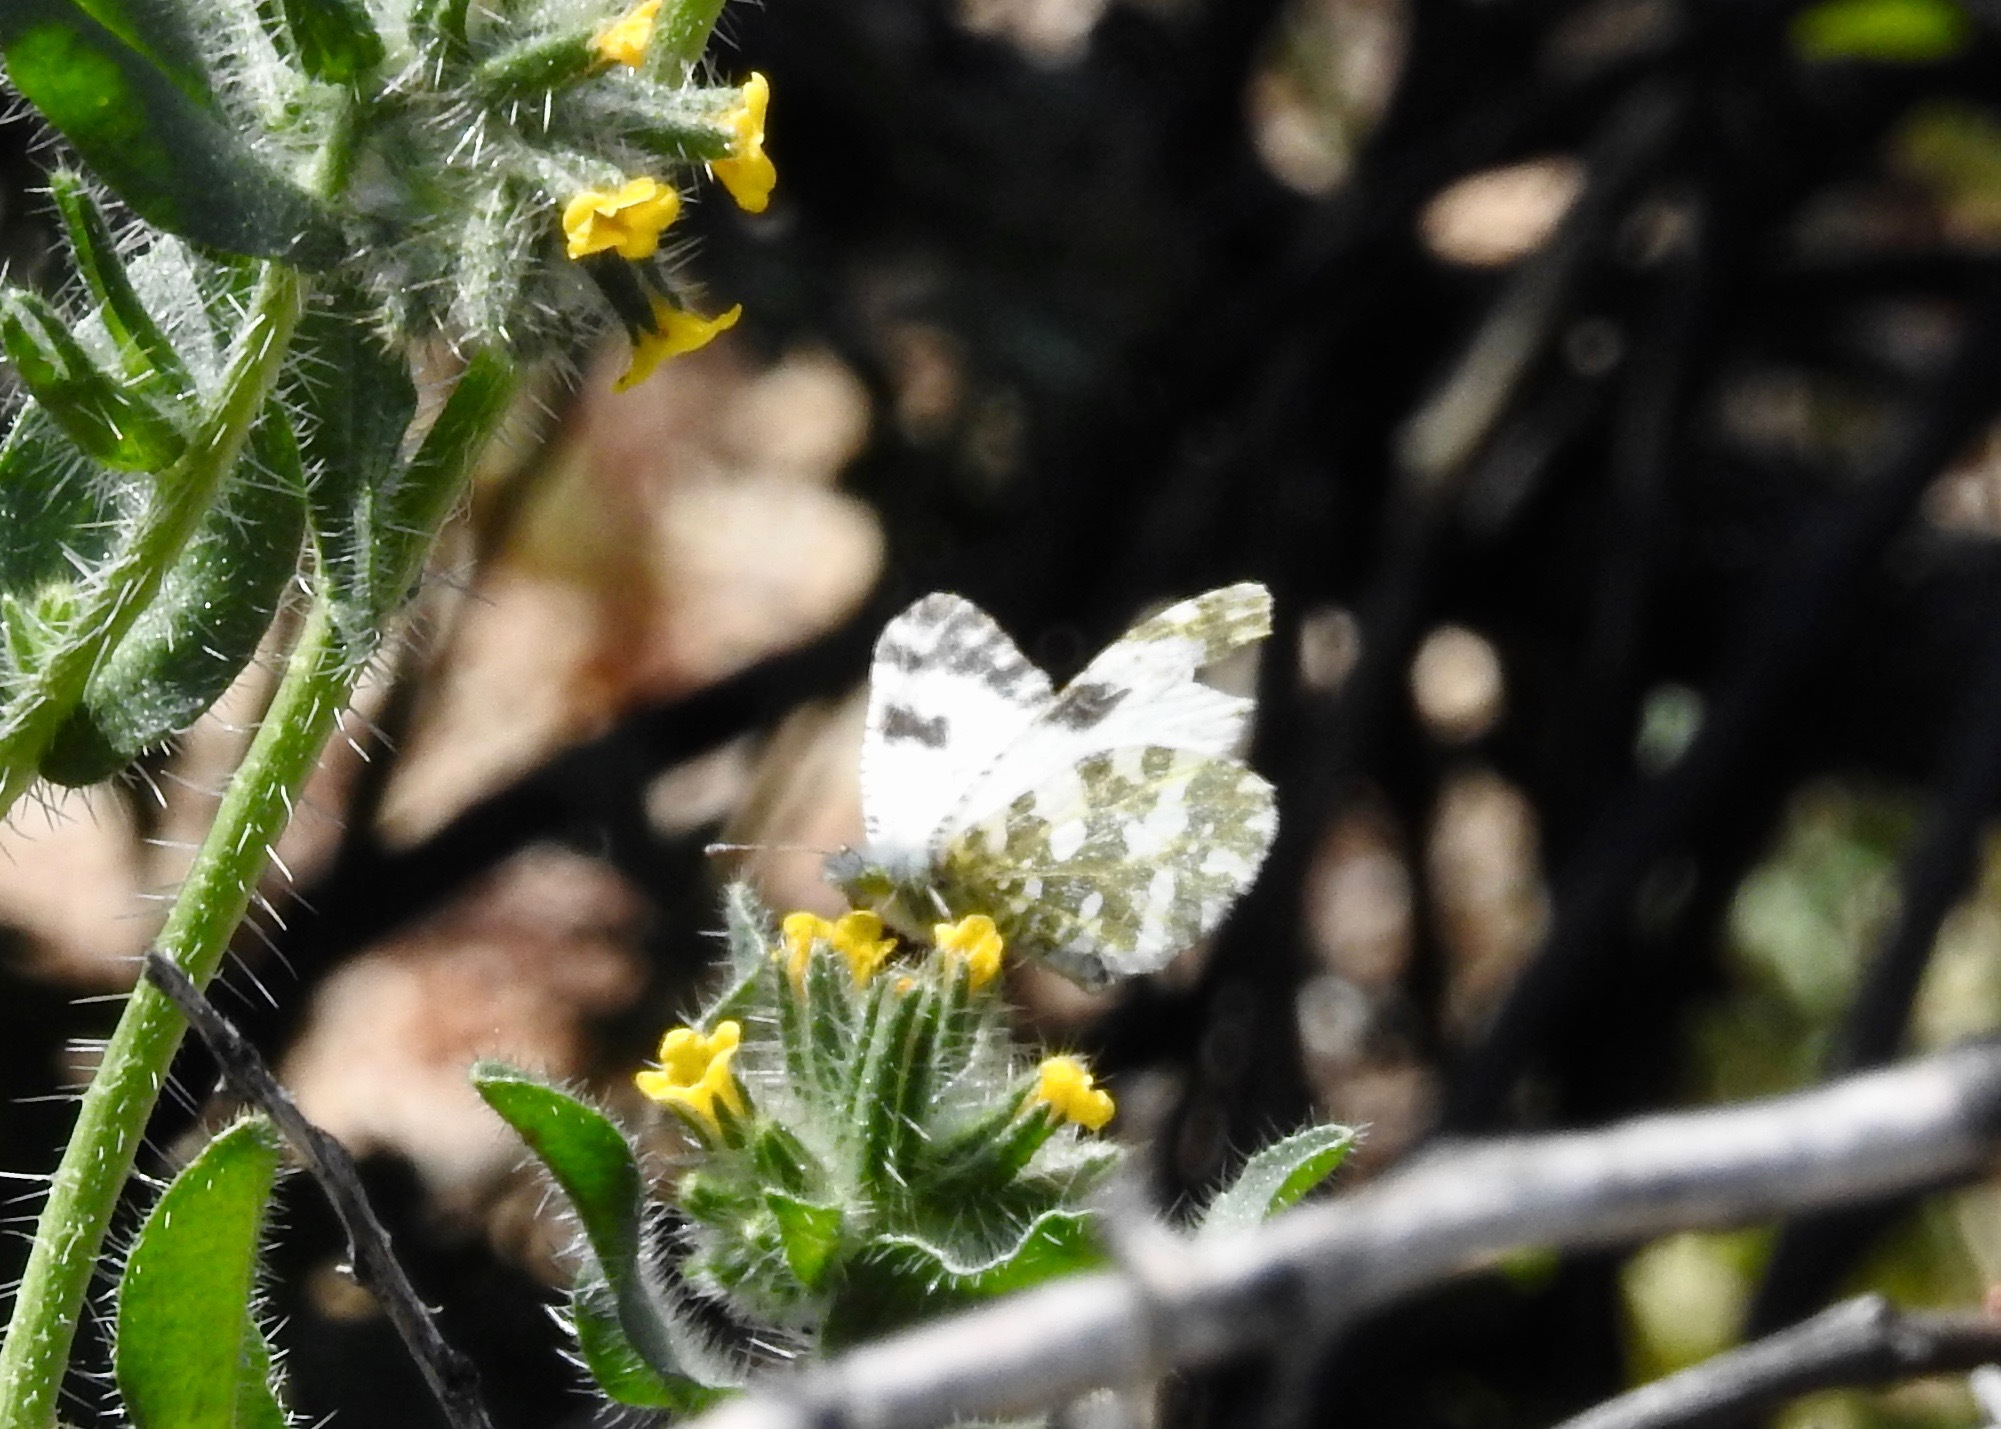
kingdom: Animalia
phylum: Arthropoda
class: Insecta
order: Lepidoptera
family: Pieridae
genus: Euchloe
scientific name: Euchloe lotta
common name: Desert marble
